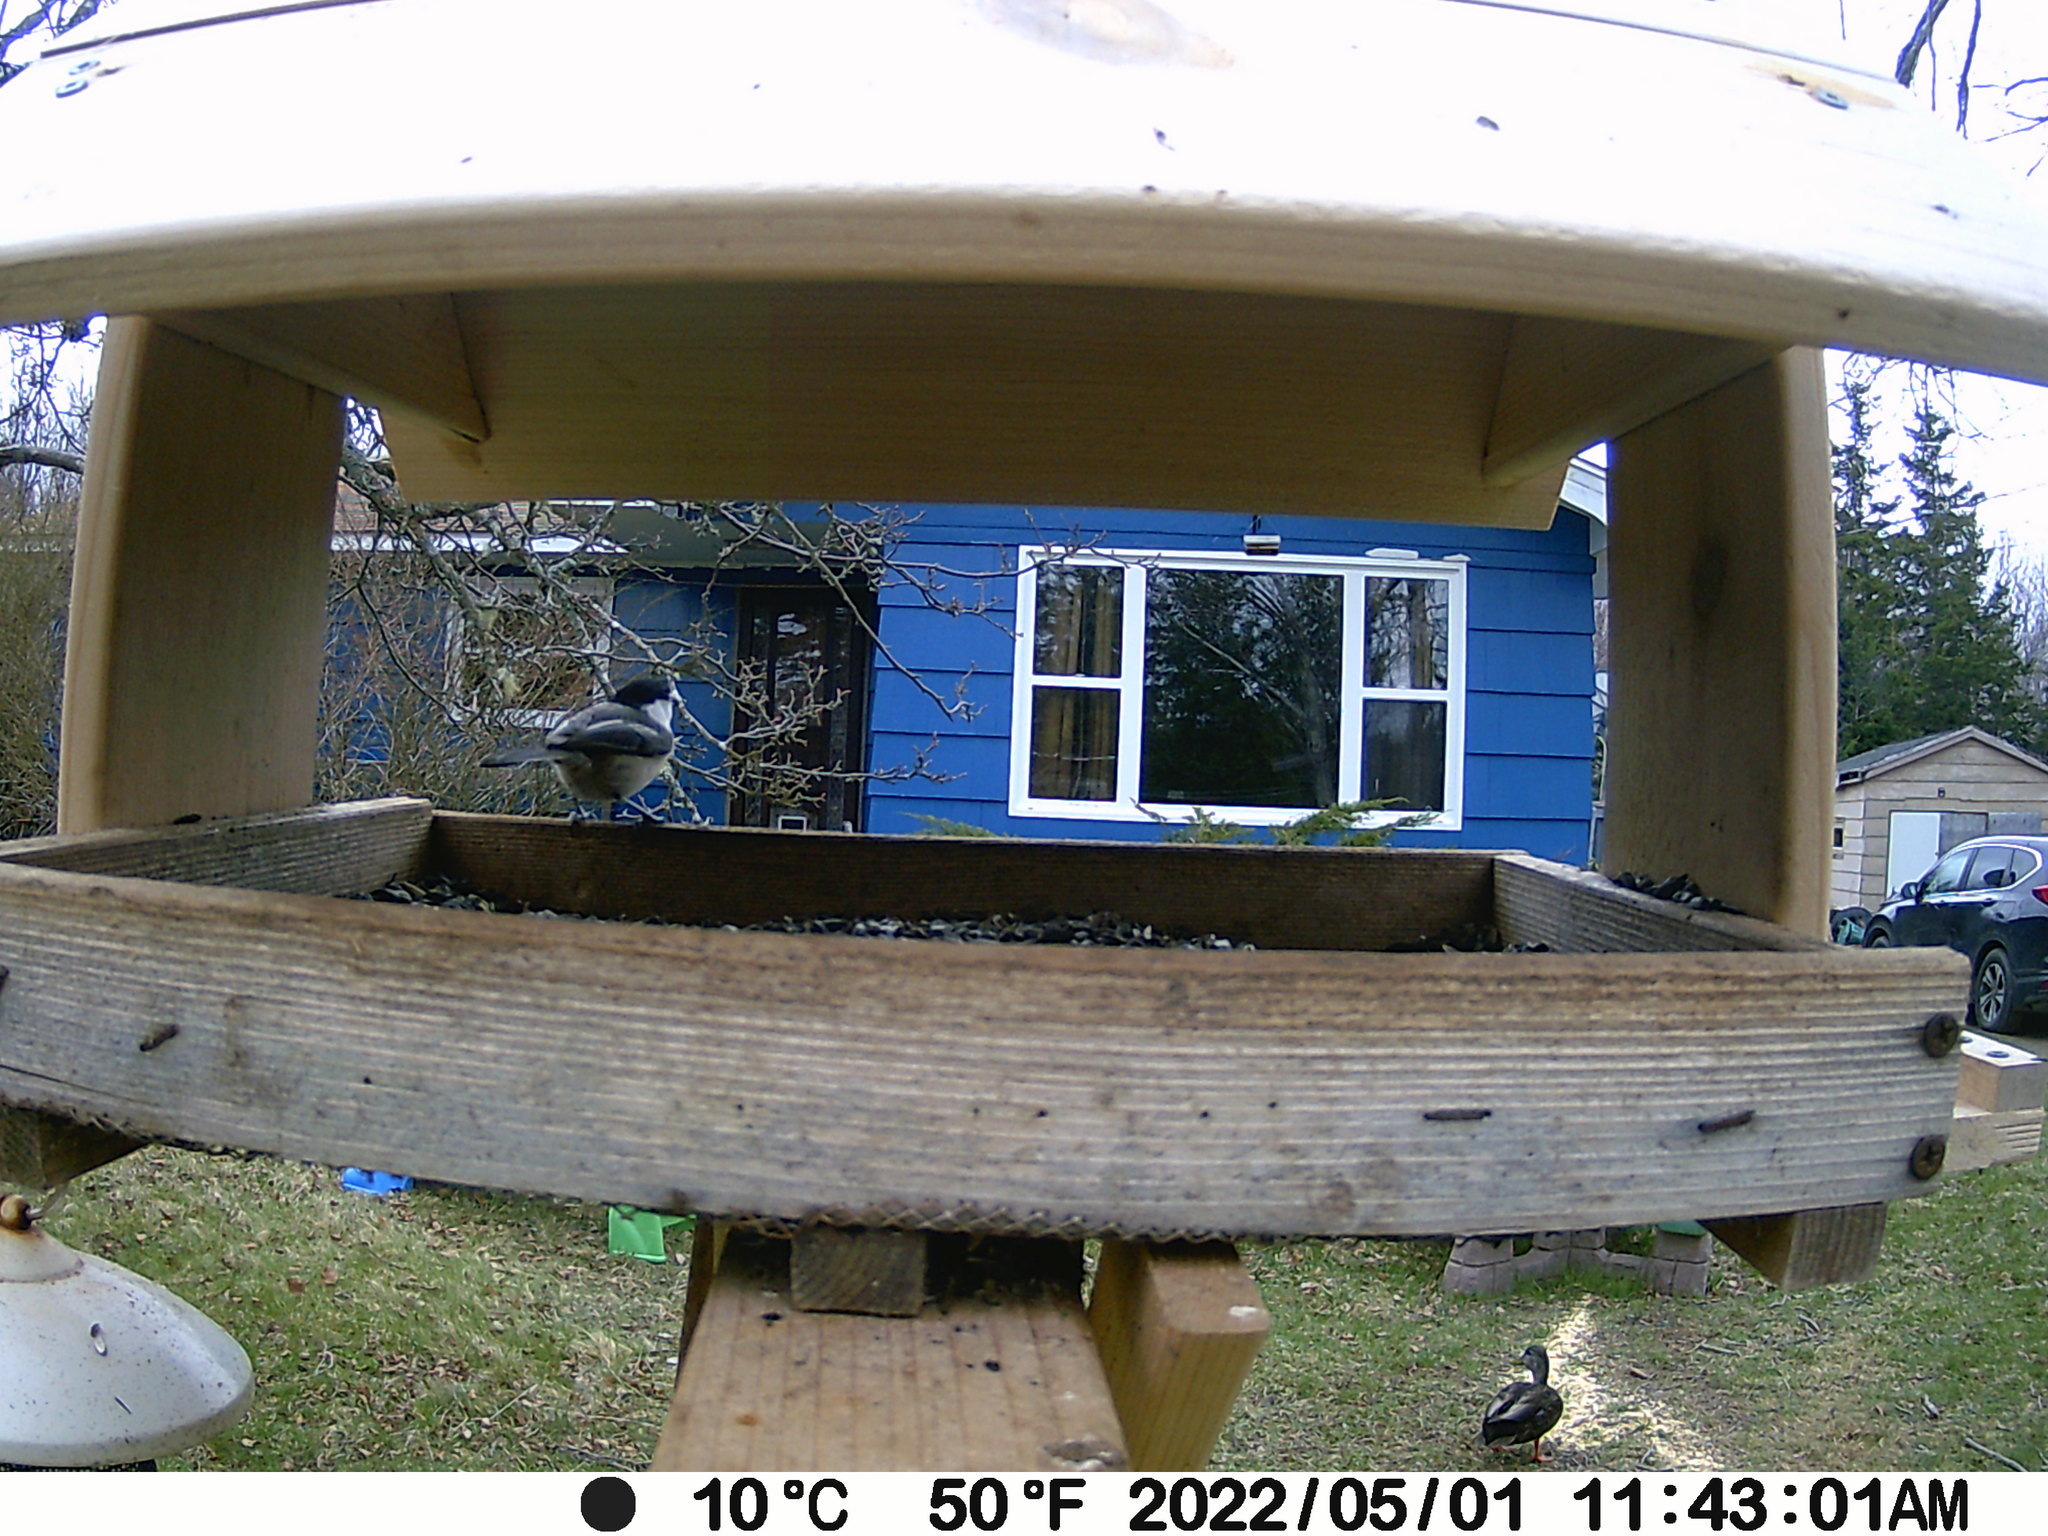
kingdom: Animalia
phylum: Chordata
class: Aves
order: Passeriformes
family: Paridae
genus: Poecile
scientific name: Poecile atricapillus
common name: Black-capped chickadee
